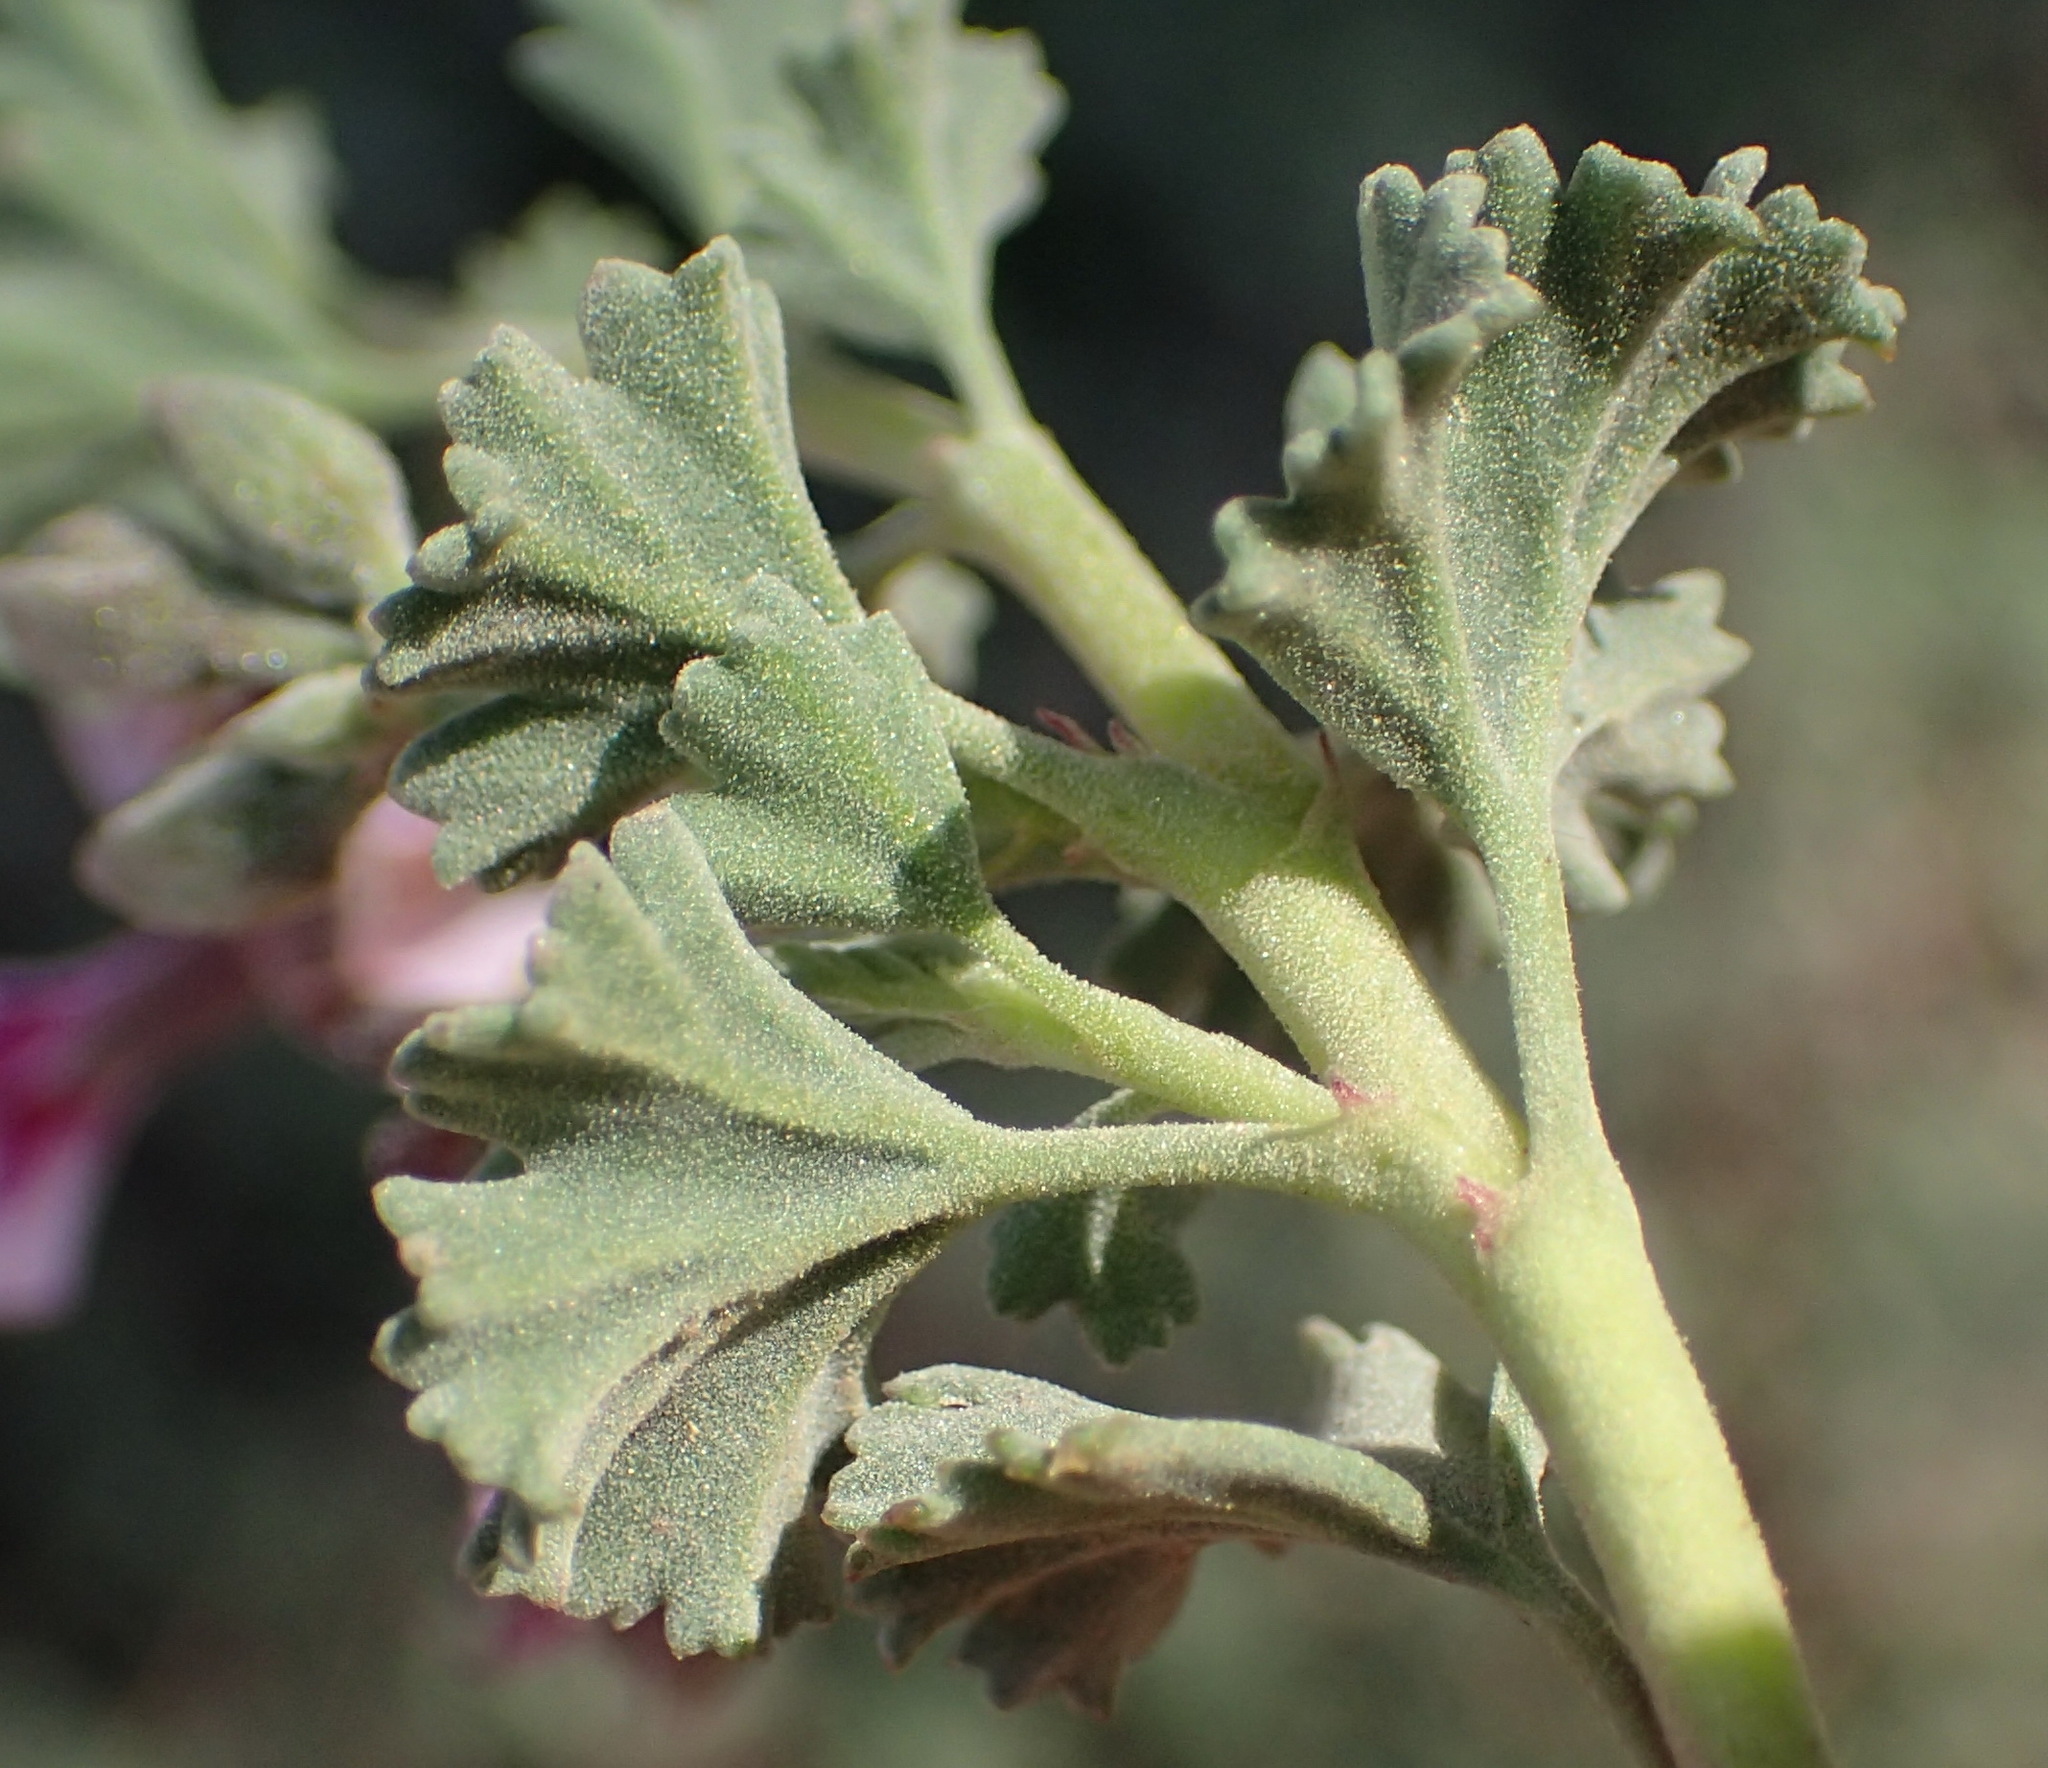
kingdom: Plantae
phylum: Tracheophyta
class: Magnoliopsida
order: Geraniales
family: Geraniaceae
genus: Pelargonium
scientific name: Pelargonium exstipulatum
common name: Soft-leaf trifid pelargonium
